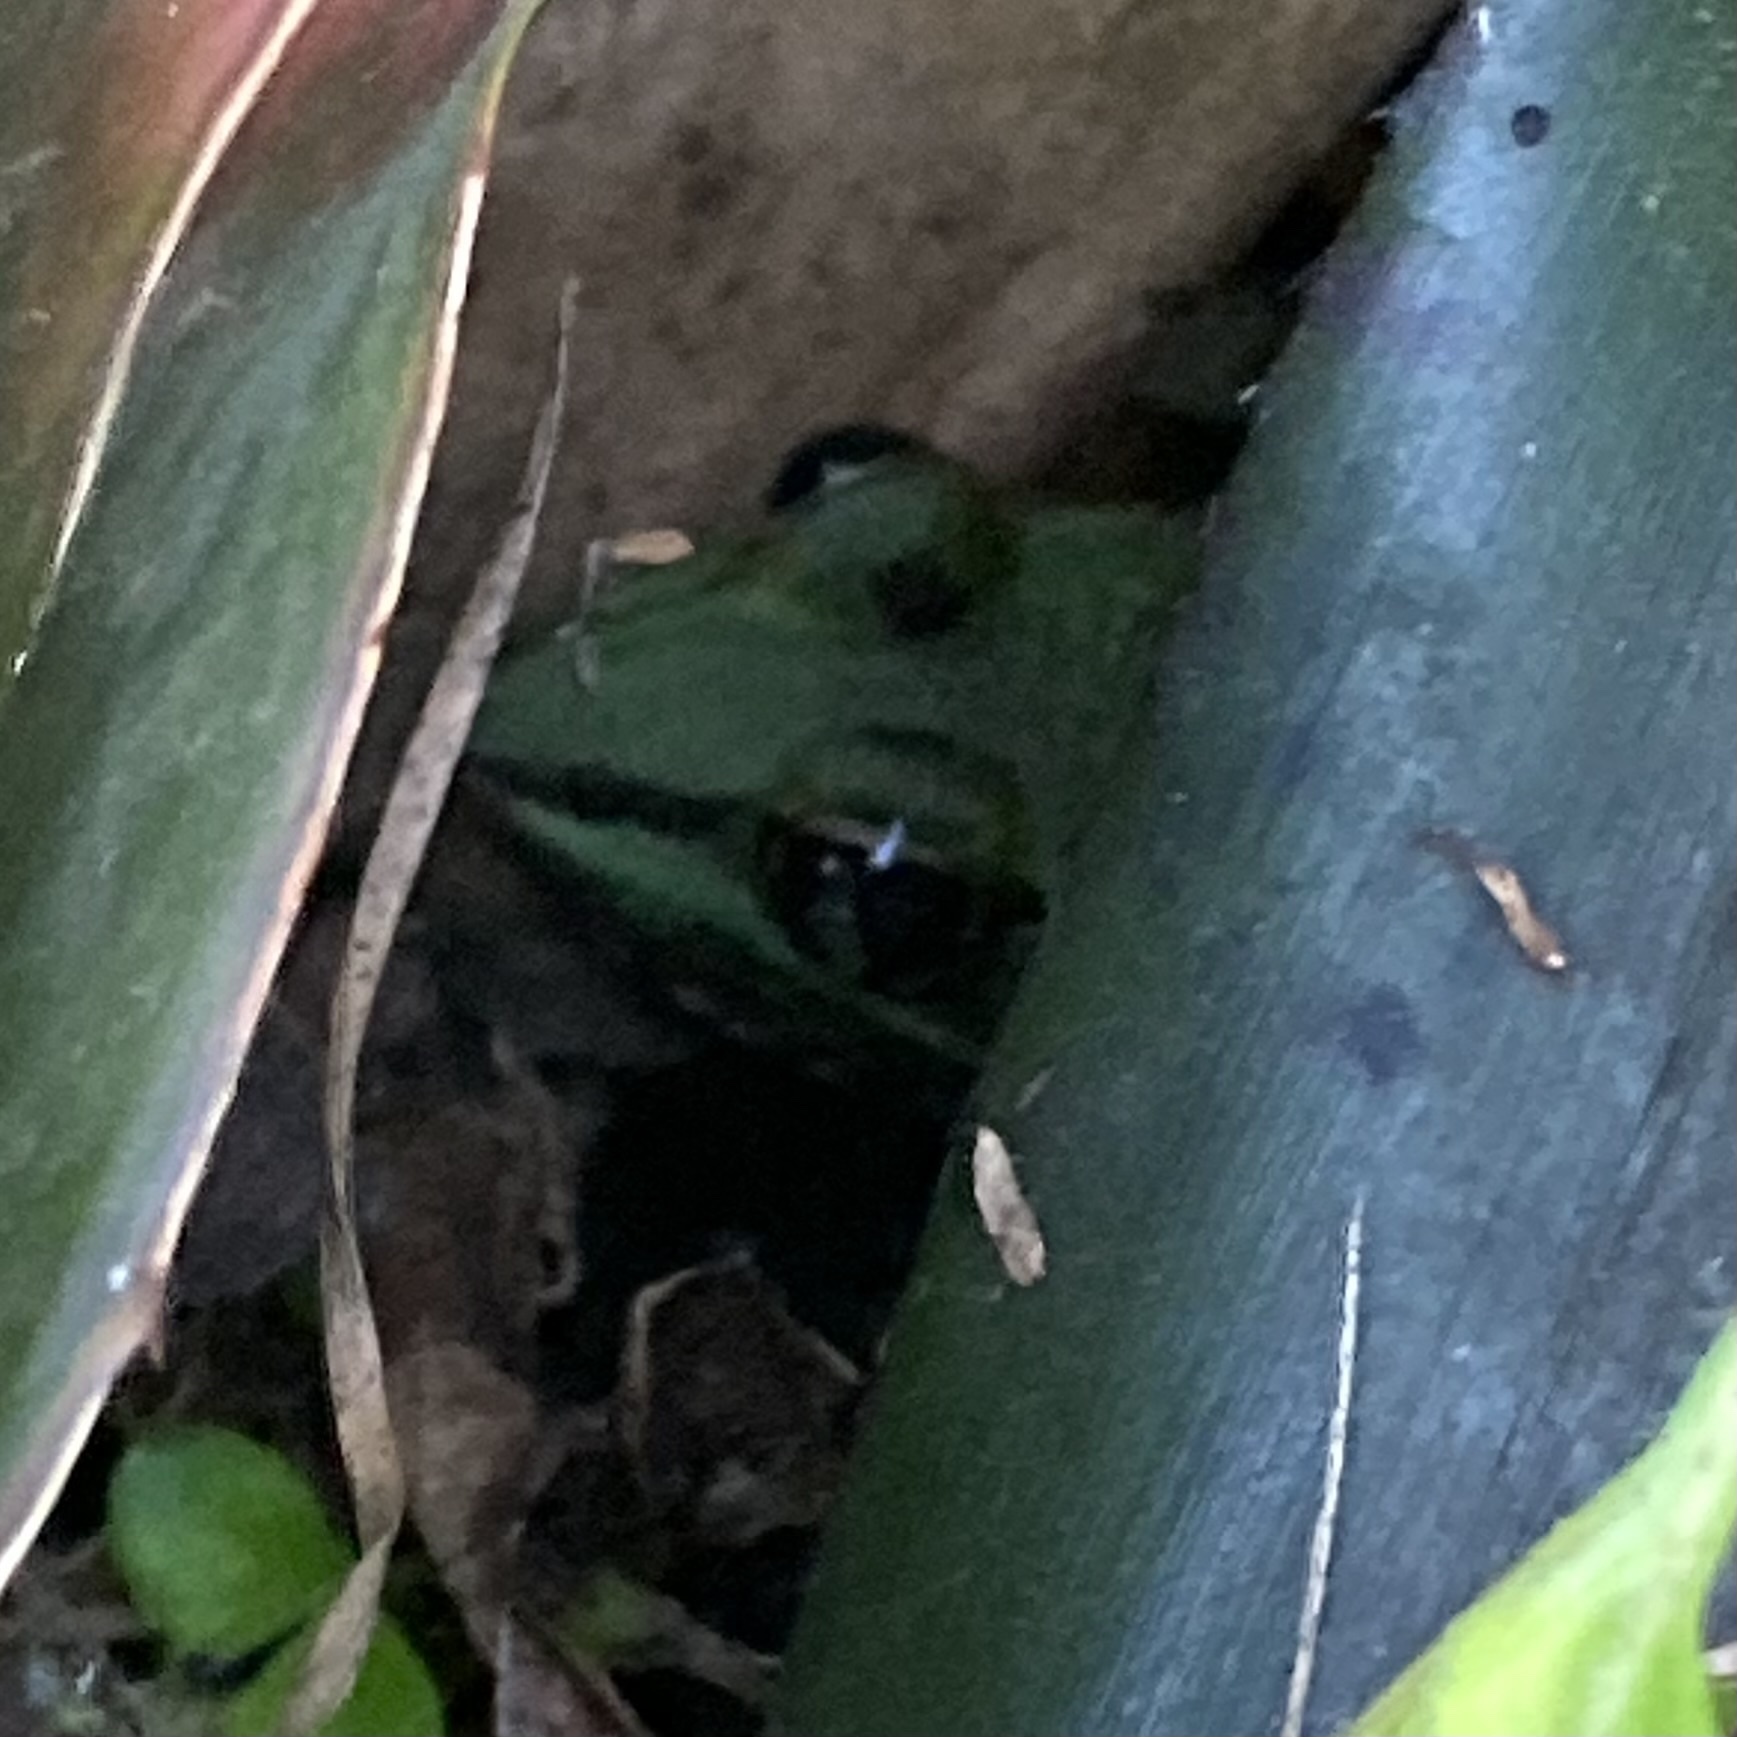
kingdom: Animalia
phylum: Chordata
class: Amphibia
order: Anura
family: Ranidae
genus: Lithobates
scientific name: Lithobates sphenocephalus
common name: Southern leopard frog
